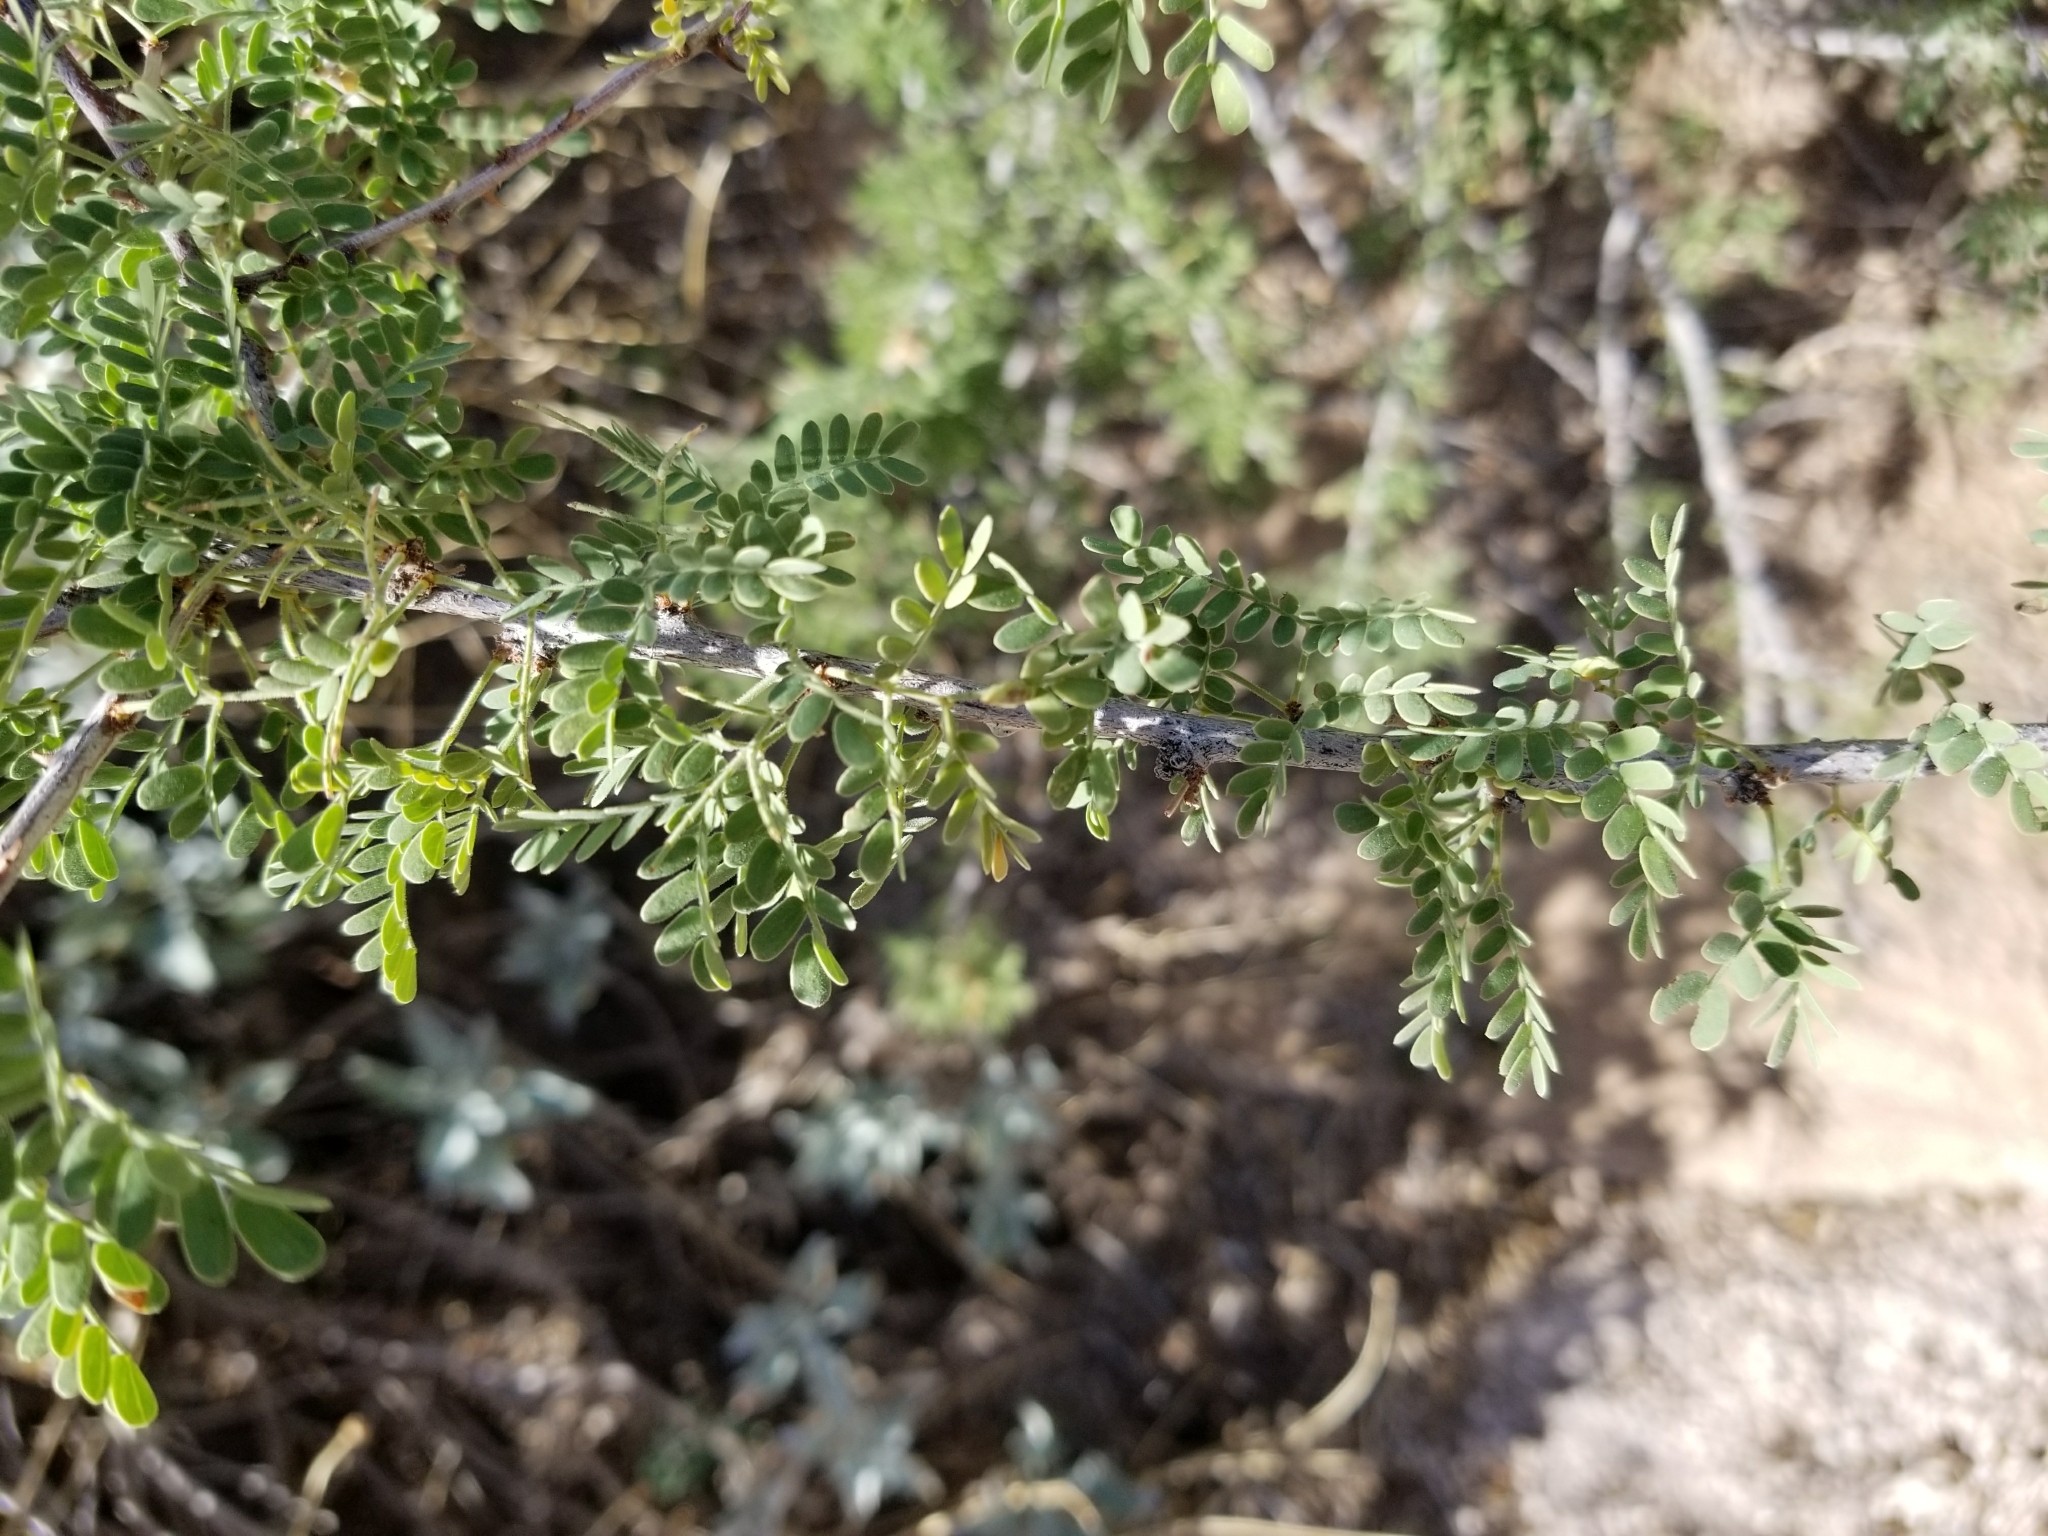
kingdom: Plantae
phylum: Tracheophyta
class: Magnoliopsida
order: Fabales
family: Fabaceae
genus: Senegalia
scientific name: Senegalia greggii
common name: Texas-mimosa
